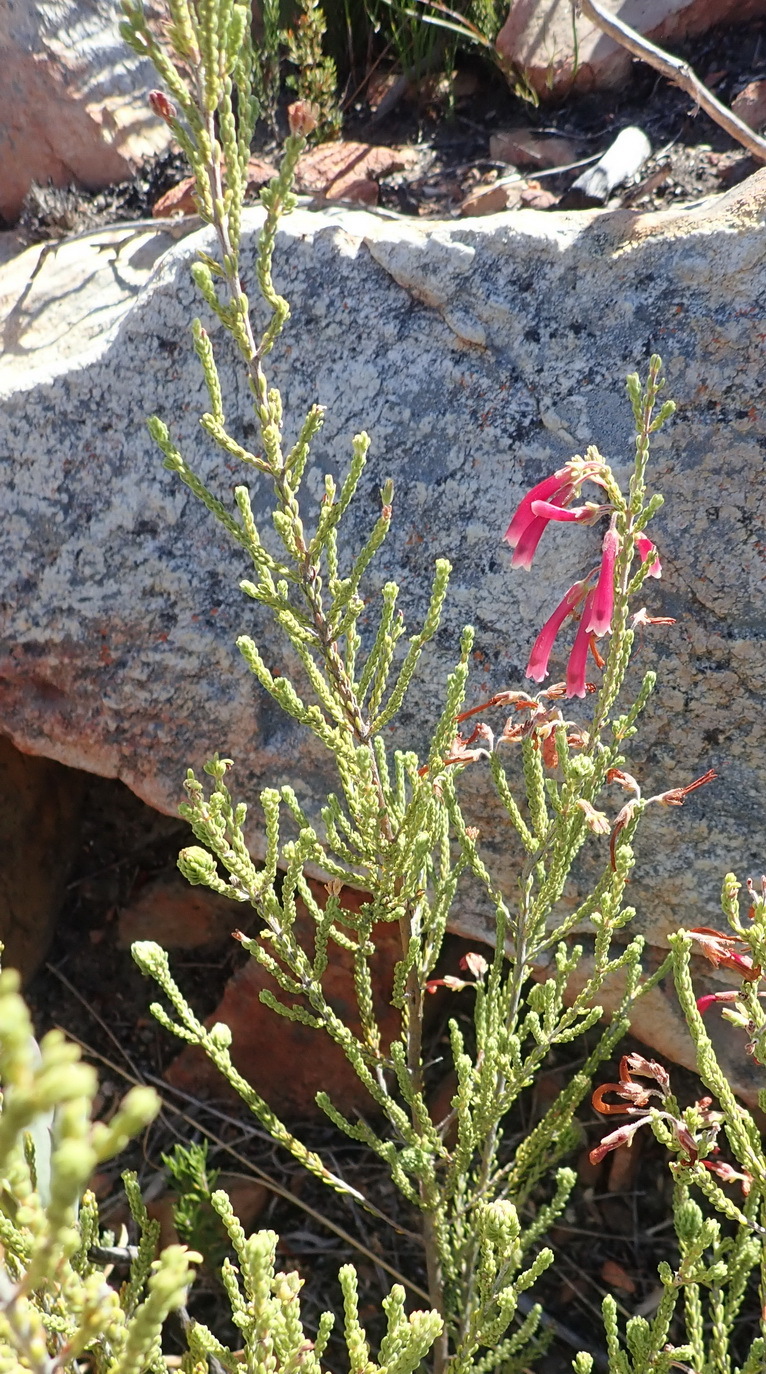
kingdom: Plantae
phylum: Tracheophyta
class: Magnoliopsida
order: Ericales
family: Ericaceae
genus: Erica
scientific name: Erica discolor
